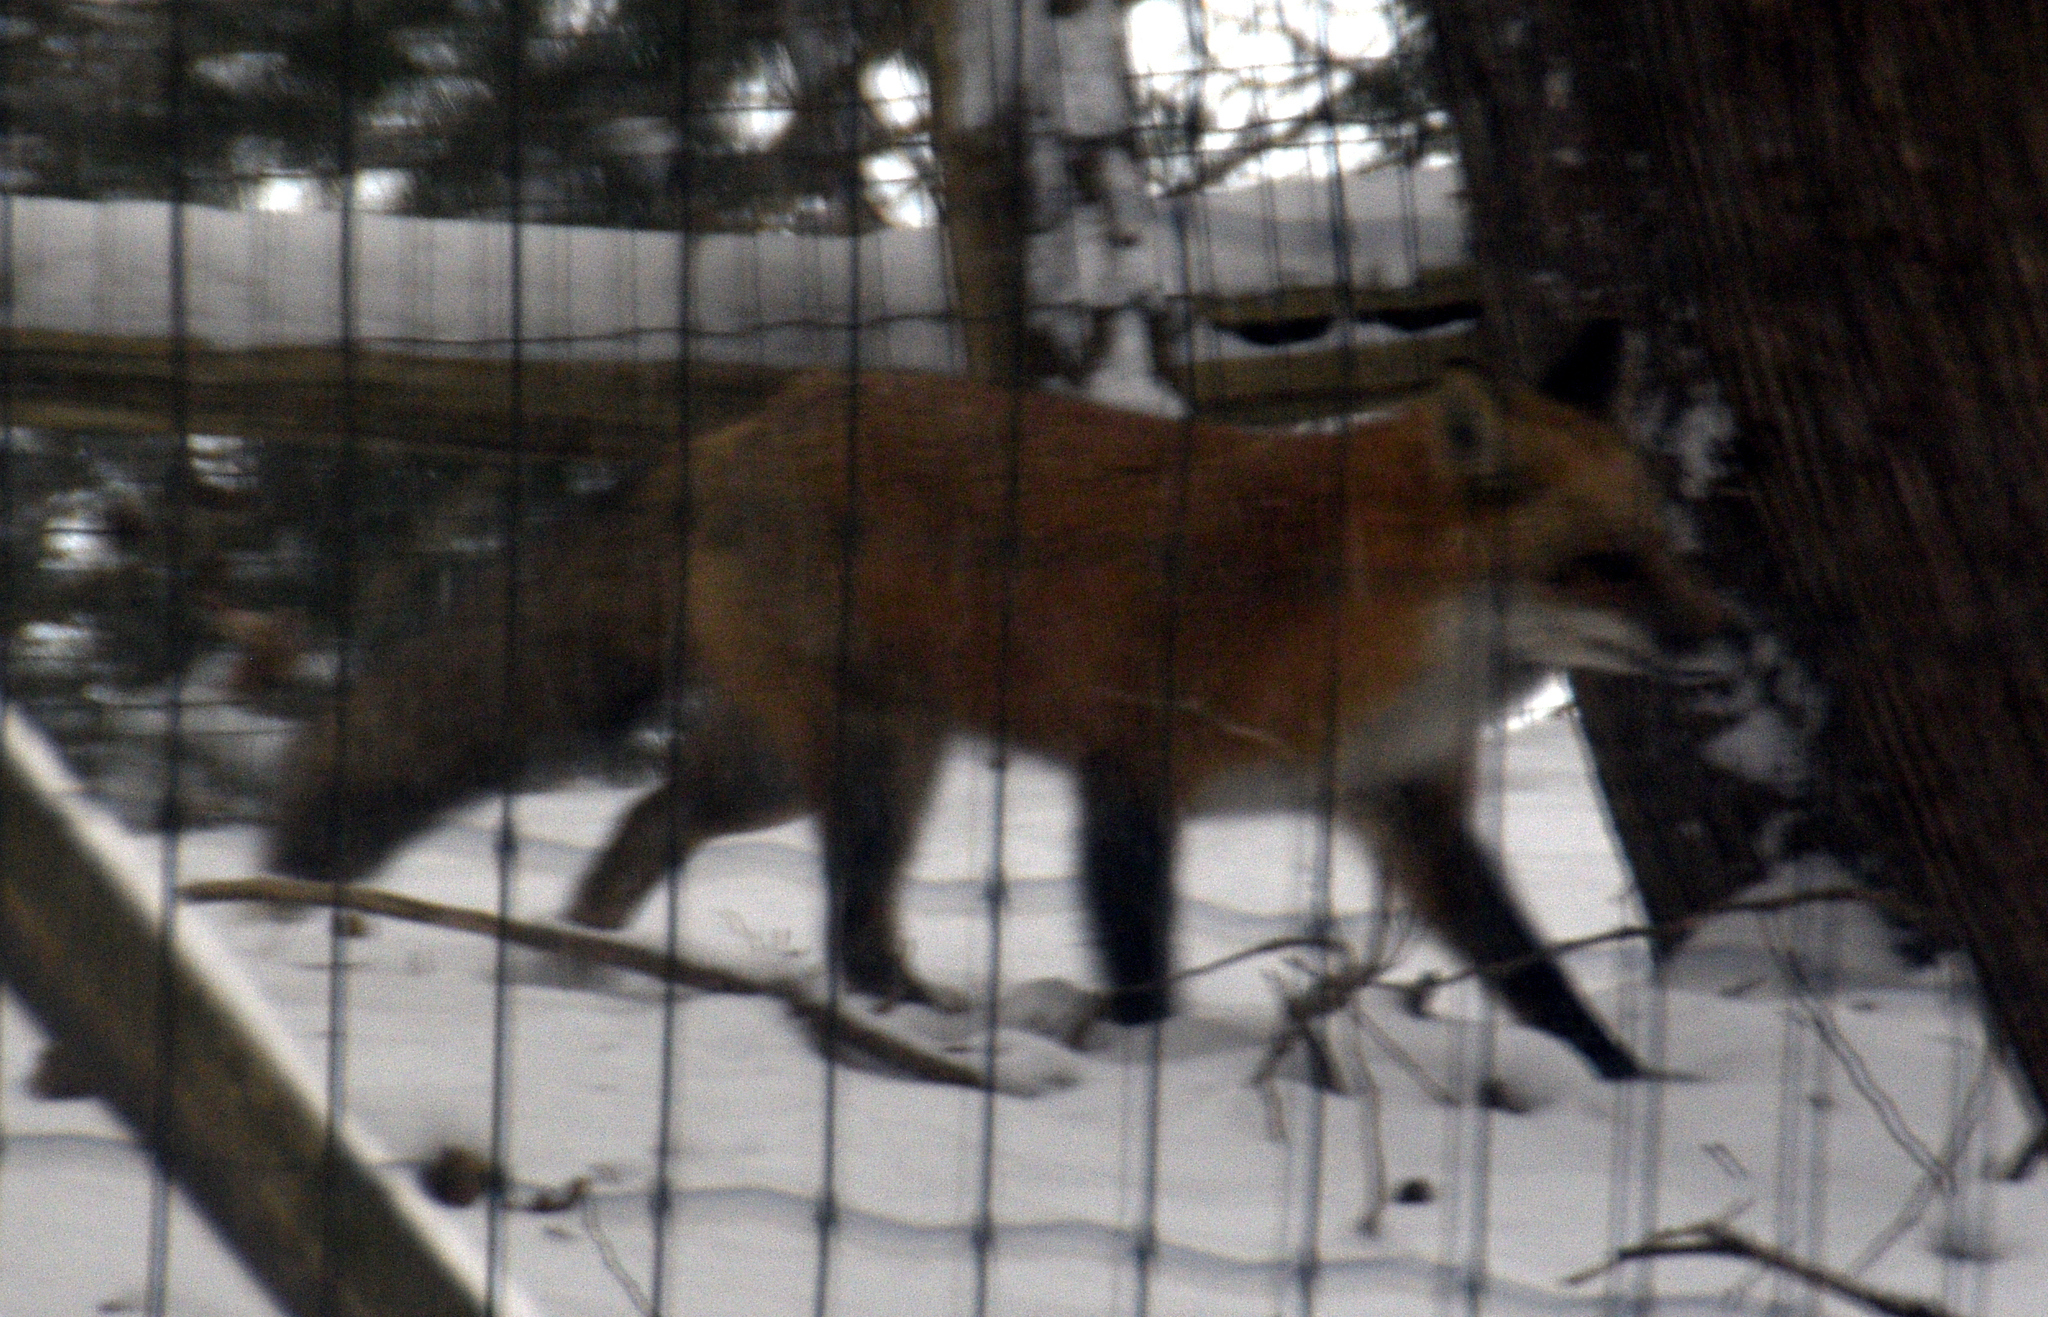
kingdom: Animalia
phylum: Chordata
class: Mammalia
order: Carnivora
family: Canidae
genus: Vulpes
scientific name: Vulpes vulpes
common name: Red fox
